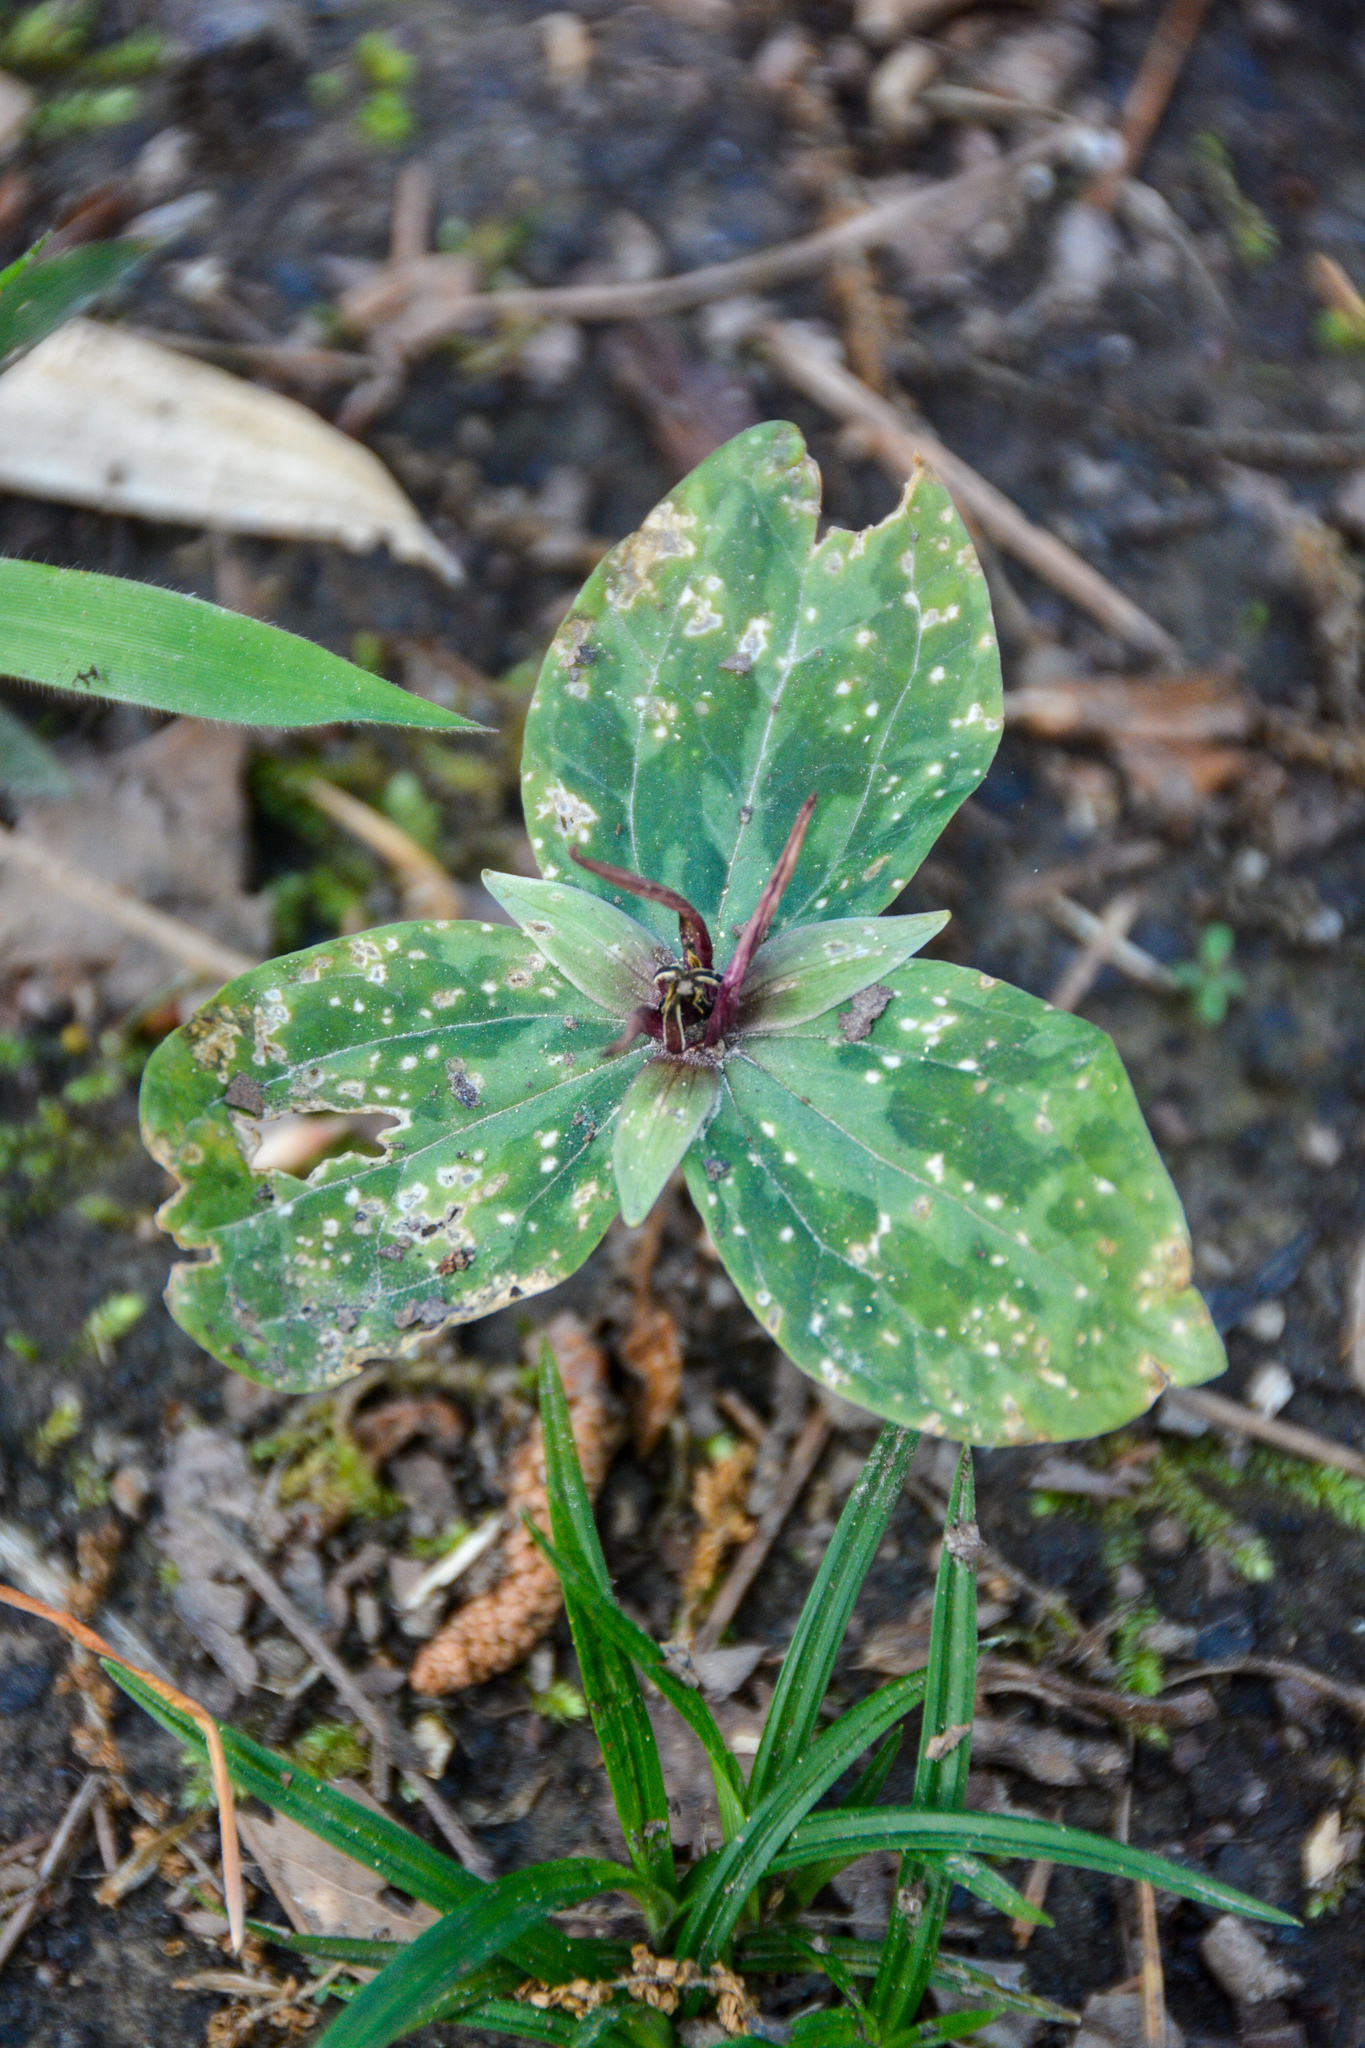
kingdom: Plantae
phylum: Tracheophyta
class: Liliopsida
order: Liliales
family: Melanthiaceae
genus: Trillium
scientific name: Trillium foetidissimum
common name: Mississippi river trillium
